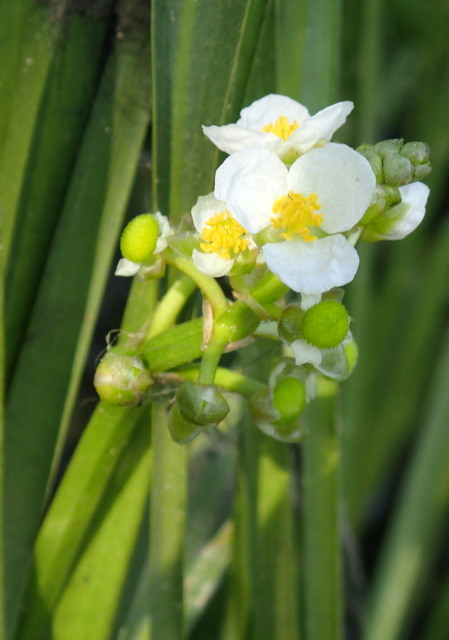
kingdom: Plantae
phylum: Tracheophyta
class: Liliopsida
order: Alismatales
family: Alismataceae
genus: Sagittaria
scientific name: Sagittaria platyphylla
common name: Broad-leaf arrowhead
